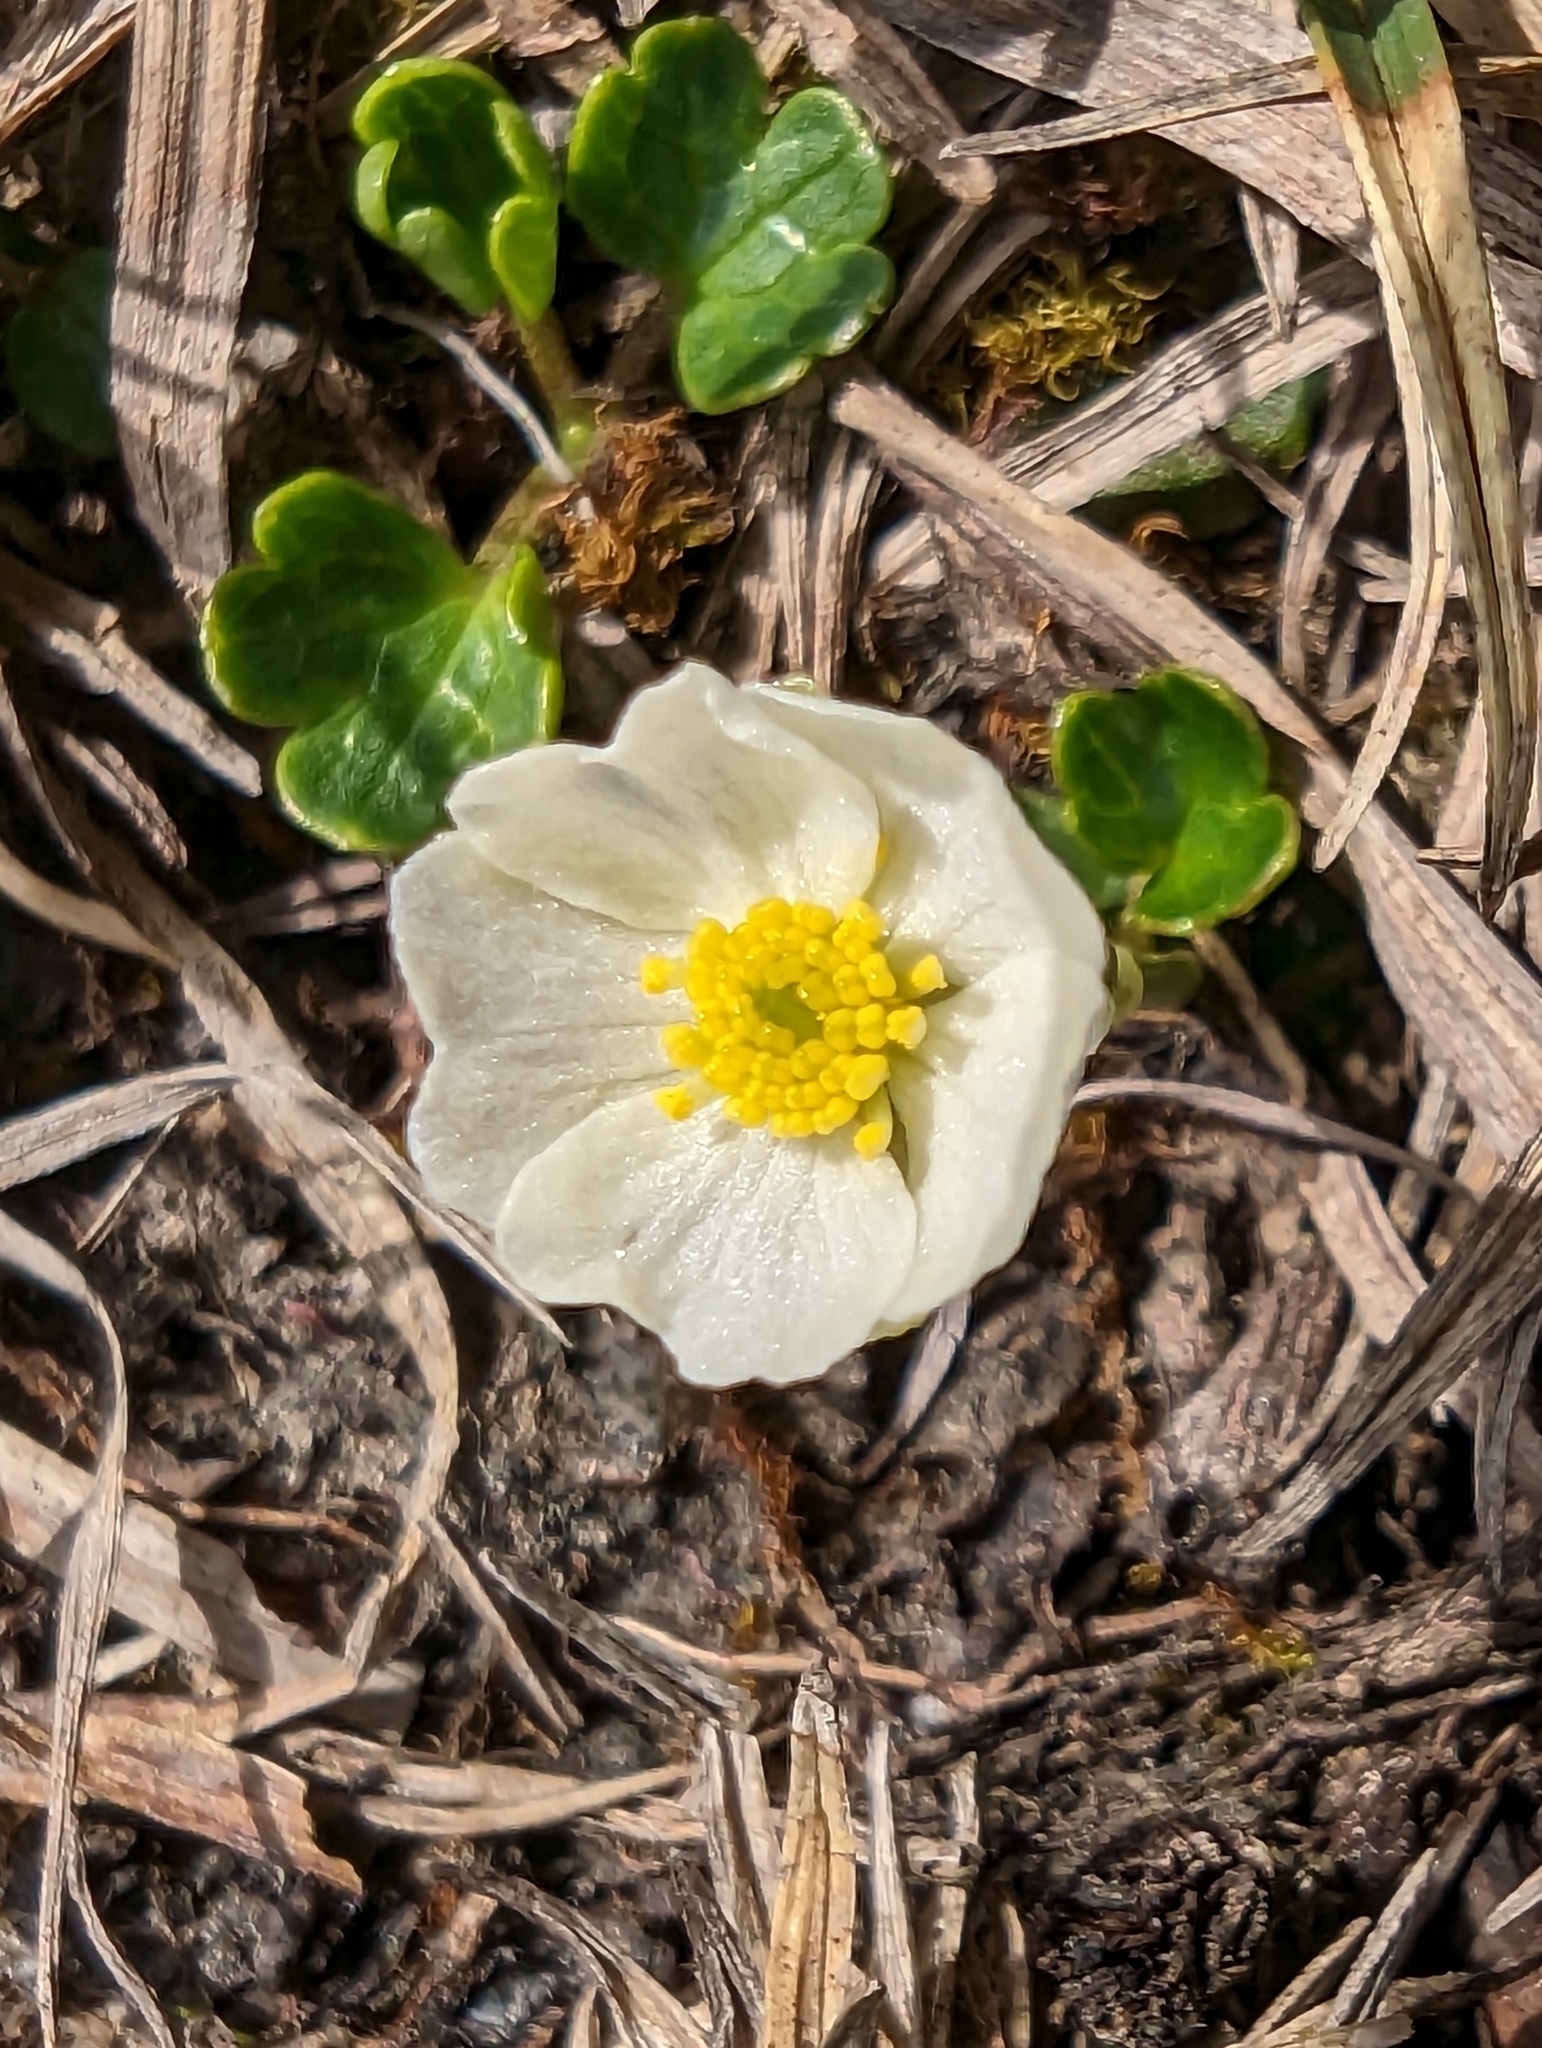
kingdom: Plantae
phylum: Tracheophyta
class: Magnoliopsida
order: Ranunculales
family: Ranunculaceae
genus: Ranunculus
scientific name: Ranunculus alpestris
